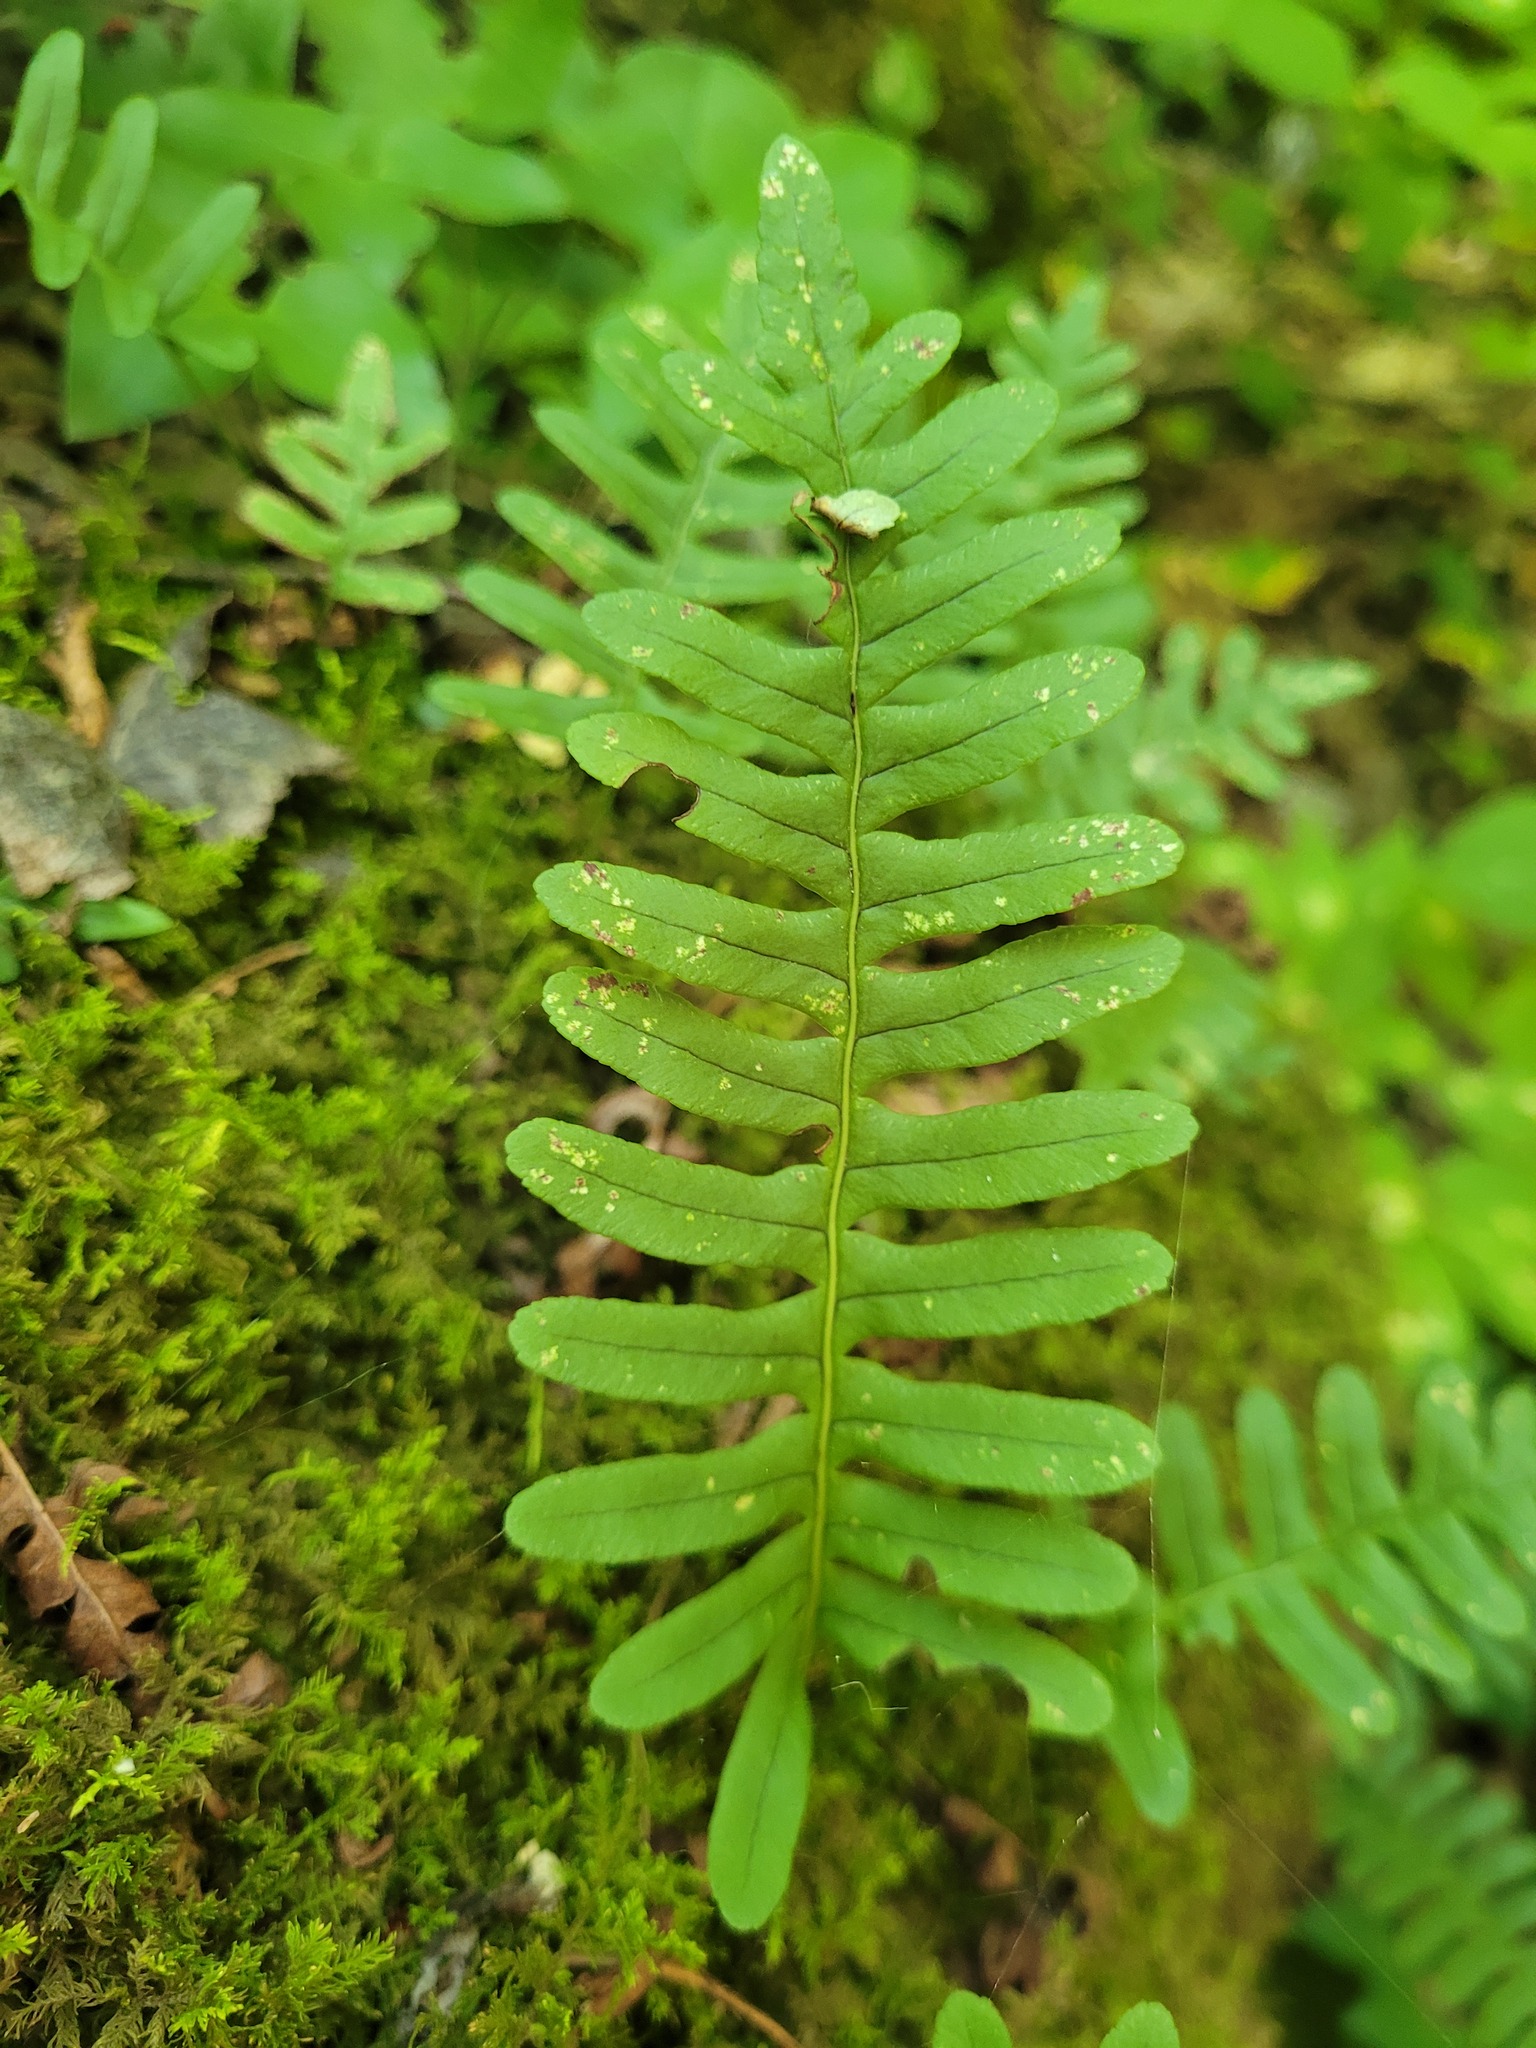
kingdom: Plantae
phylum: Tracheophyta
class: Polypodiopsida
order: Polypodiales
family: Polypodiaceae
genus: Polypodium
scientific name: Polypodium virginianum
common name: American wall fern
